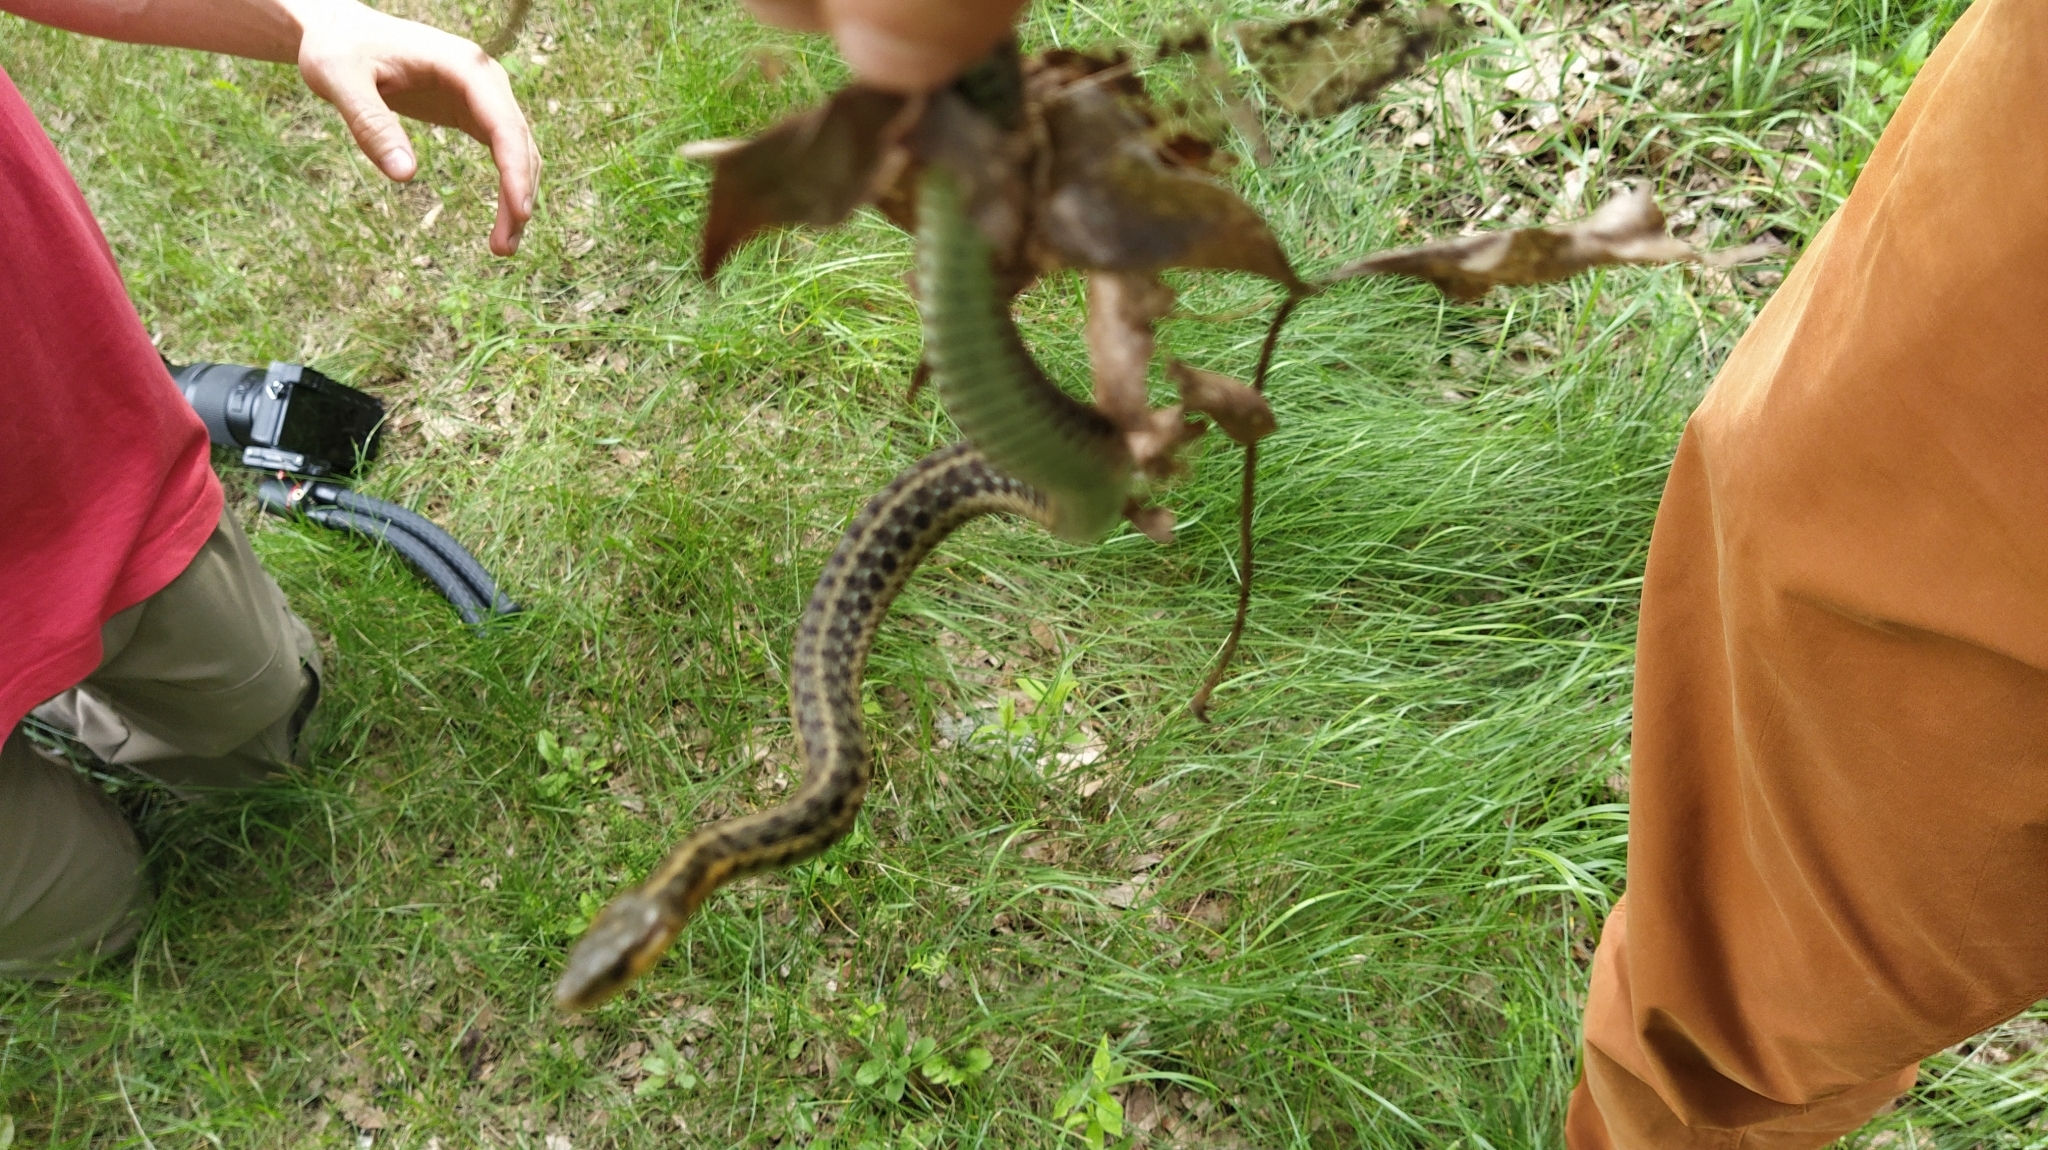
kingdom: Animalia
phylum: Chordata
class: Squamata
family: Colubridae
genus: Thamnophis
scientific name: Thamnophis sirtalis
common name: Common garter snake
